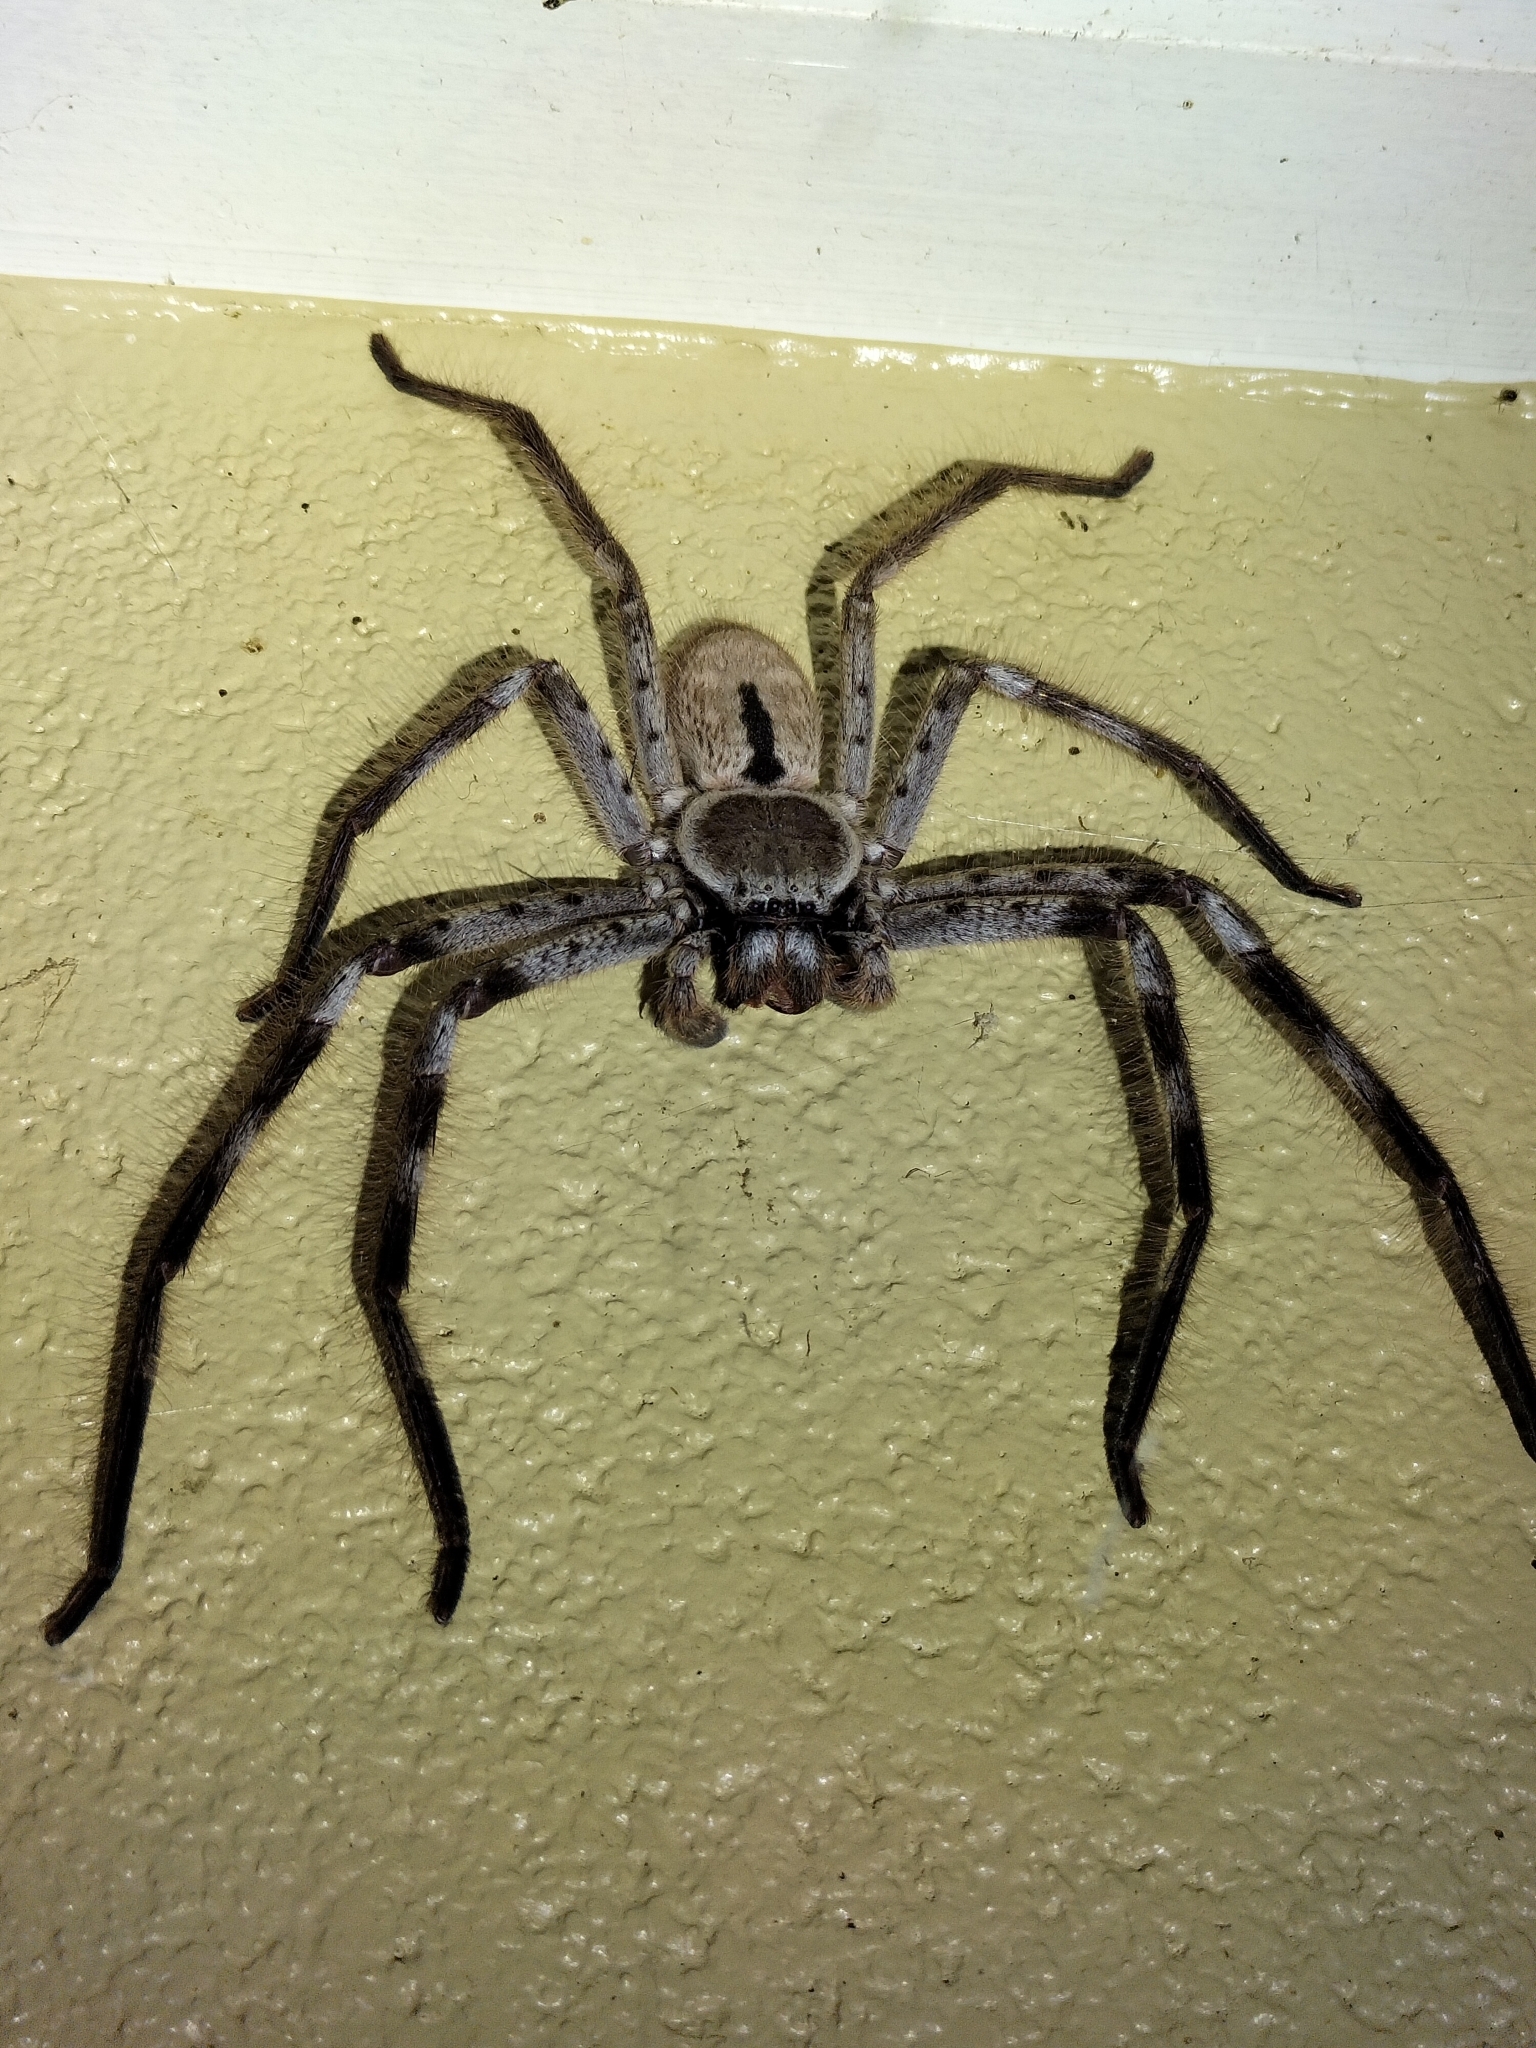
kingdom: Animalia
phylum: Arthropoda
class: Arachnida
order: Araneae
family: Sparassidae
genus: Holconia
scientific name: Holconia immanis
